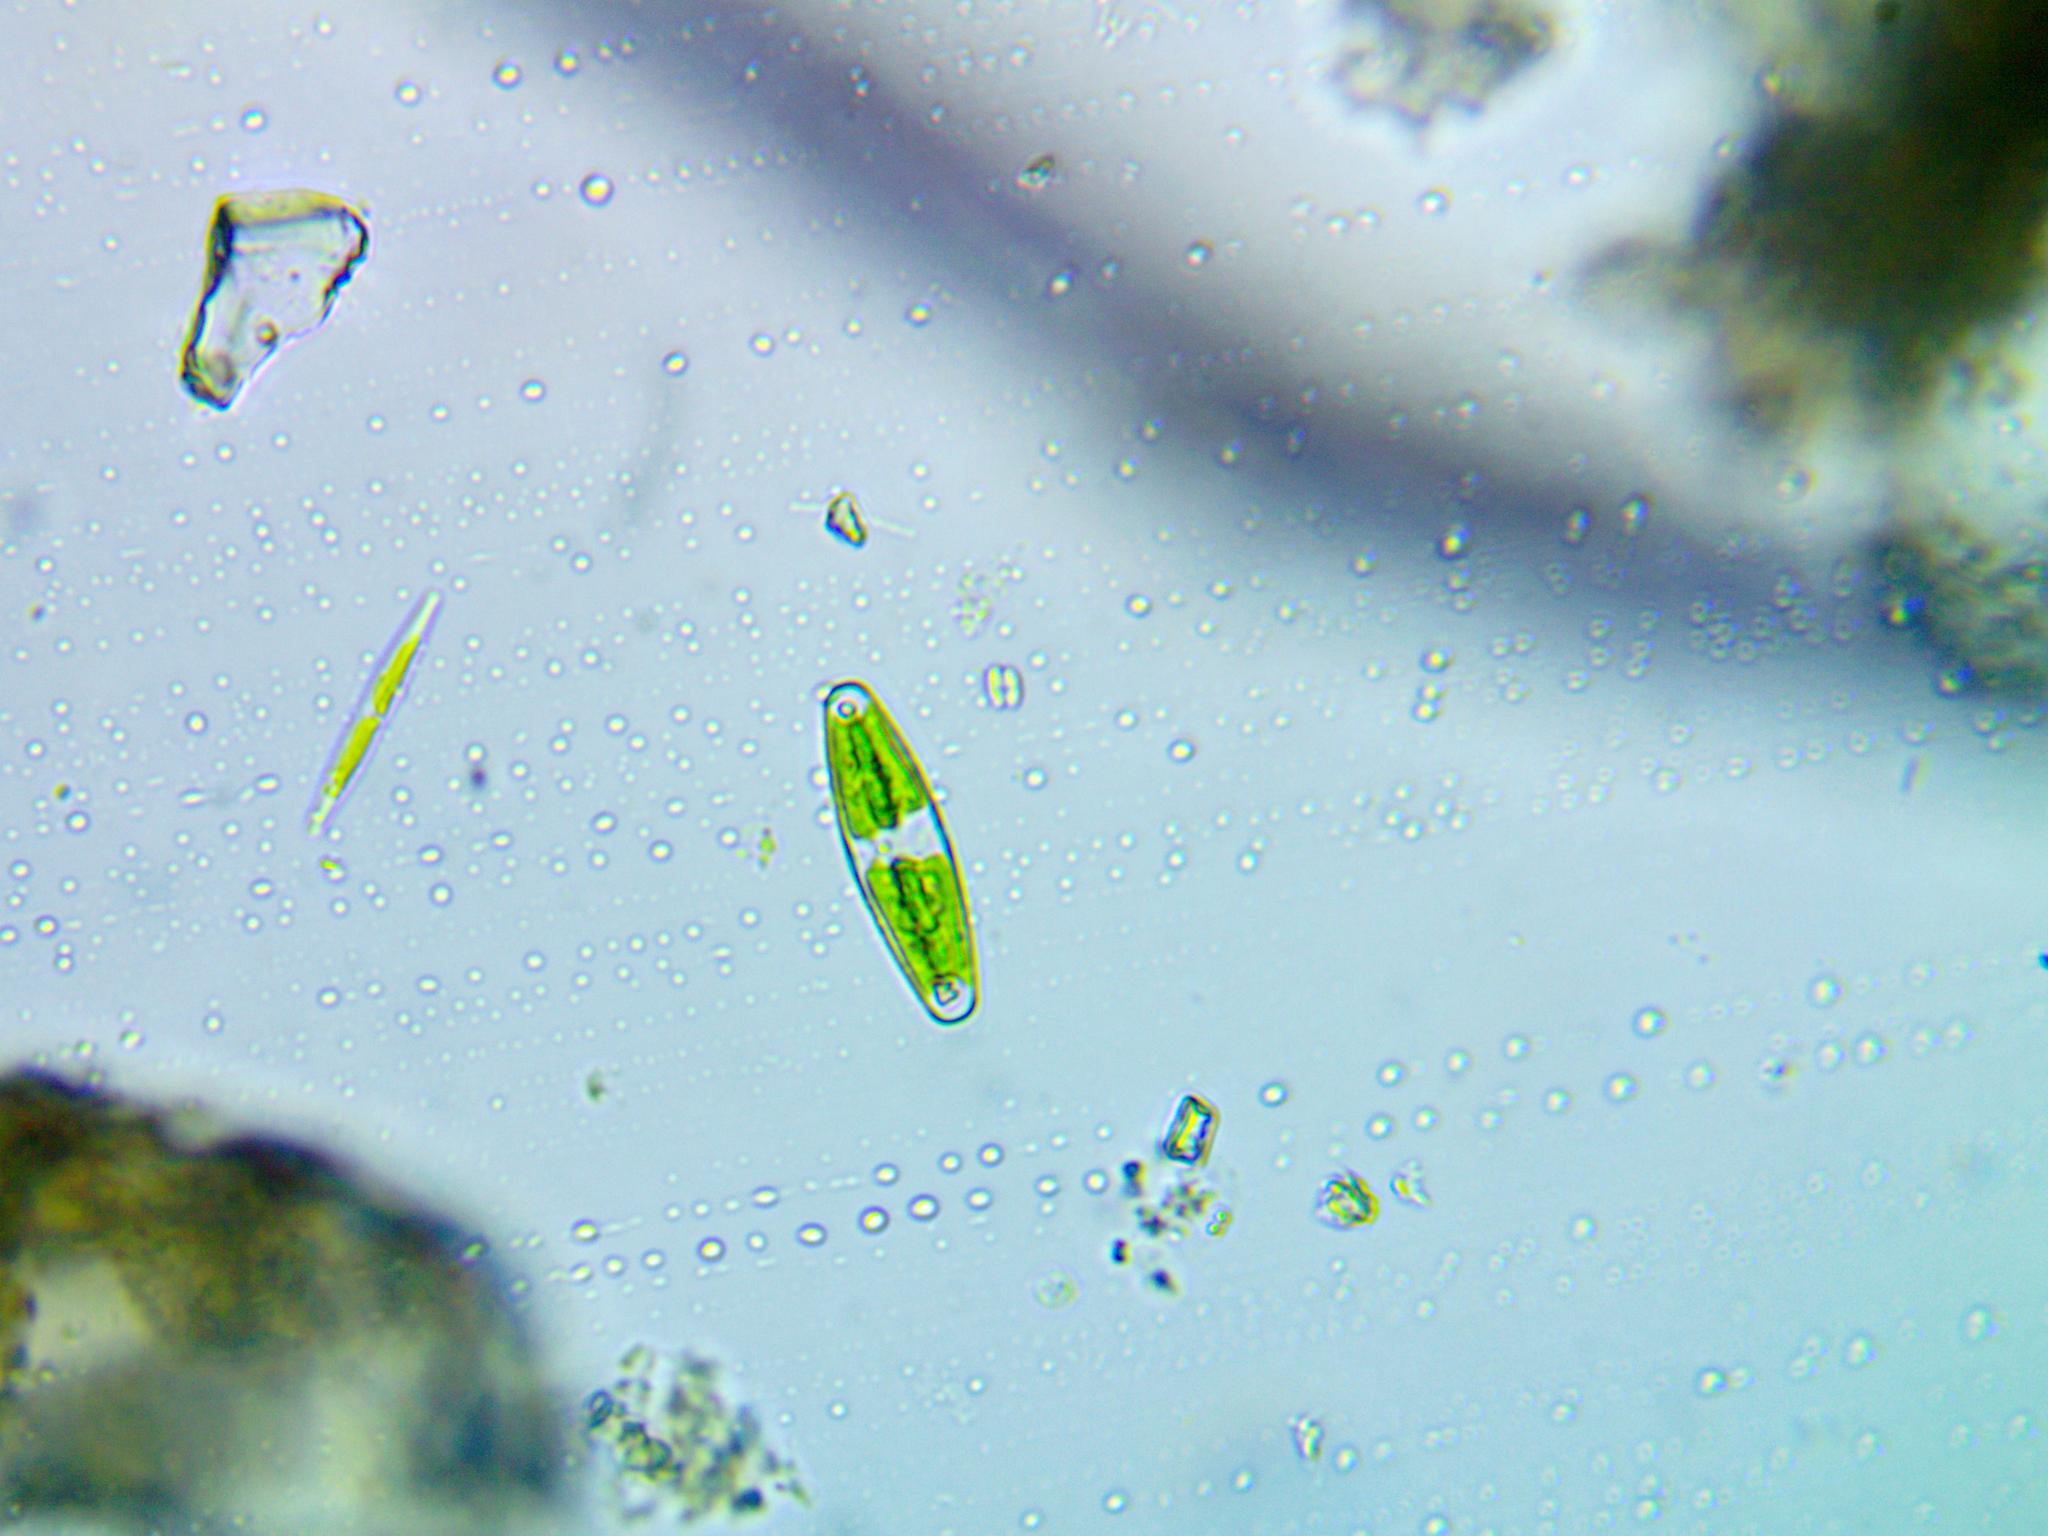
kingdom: Plantae
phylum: Charophyta
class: Zygnematophyceae
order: Zygnematales
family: Closteriaceae
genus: Closterium
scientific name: Closterium navicula
